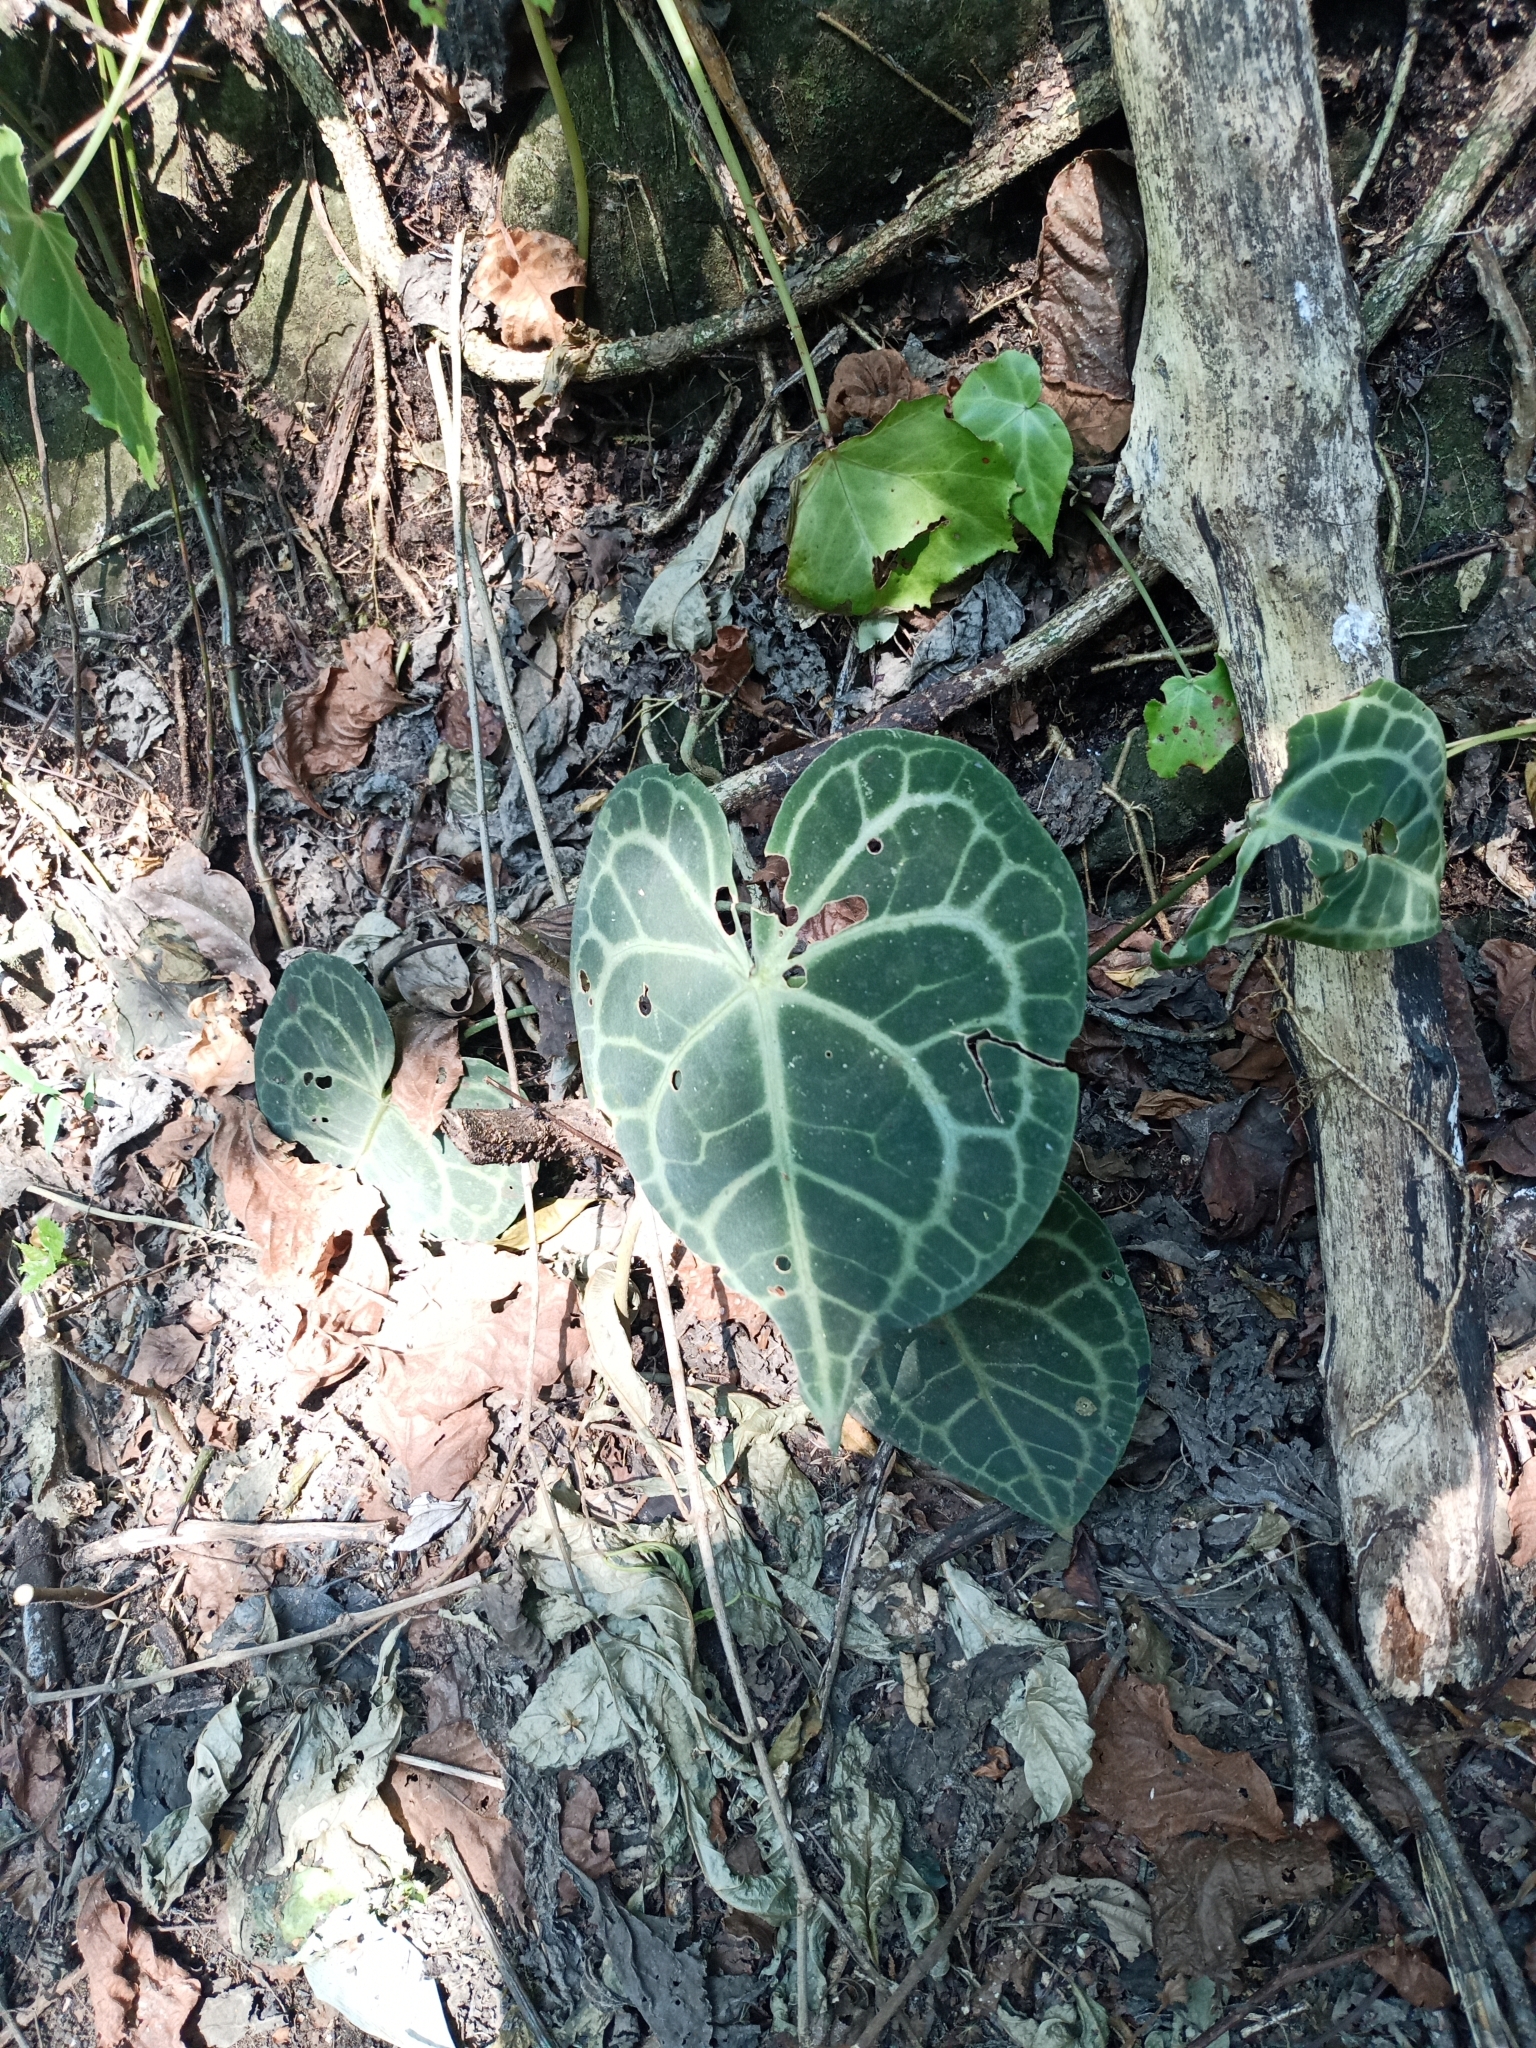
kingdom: Plantae
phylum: Tracheophyta
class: Liliopsida
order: Alismatales
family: Araceae
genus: Anthurium
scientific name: Anthurium clarinervium
